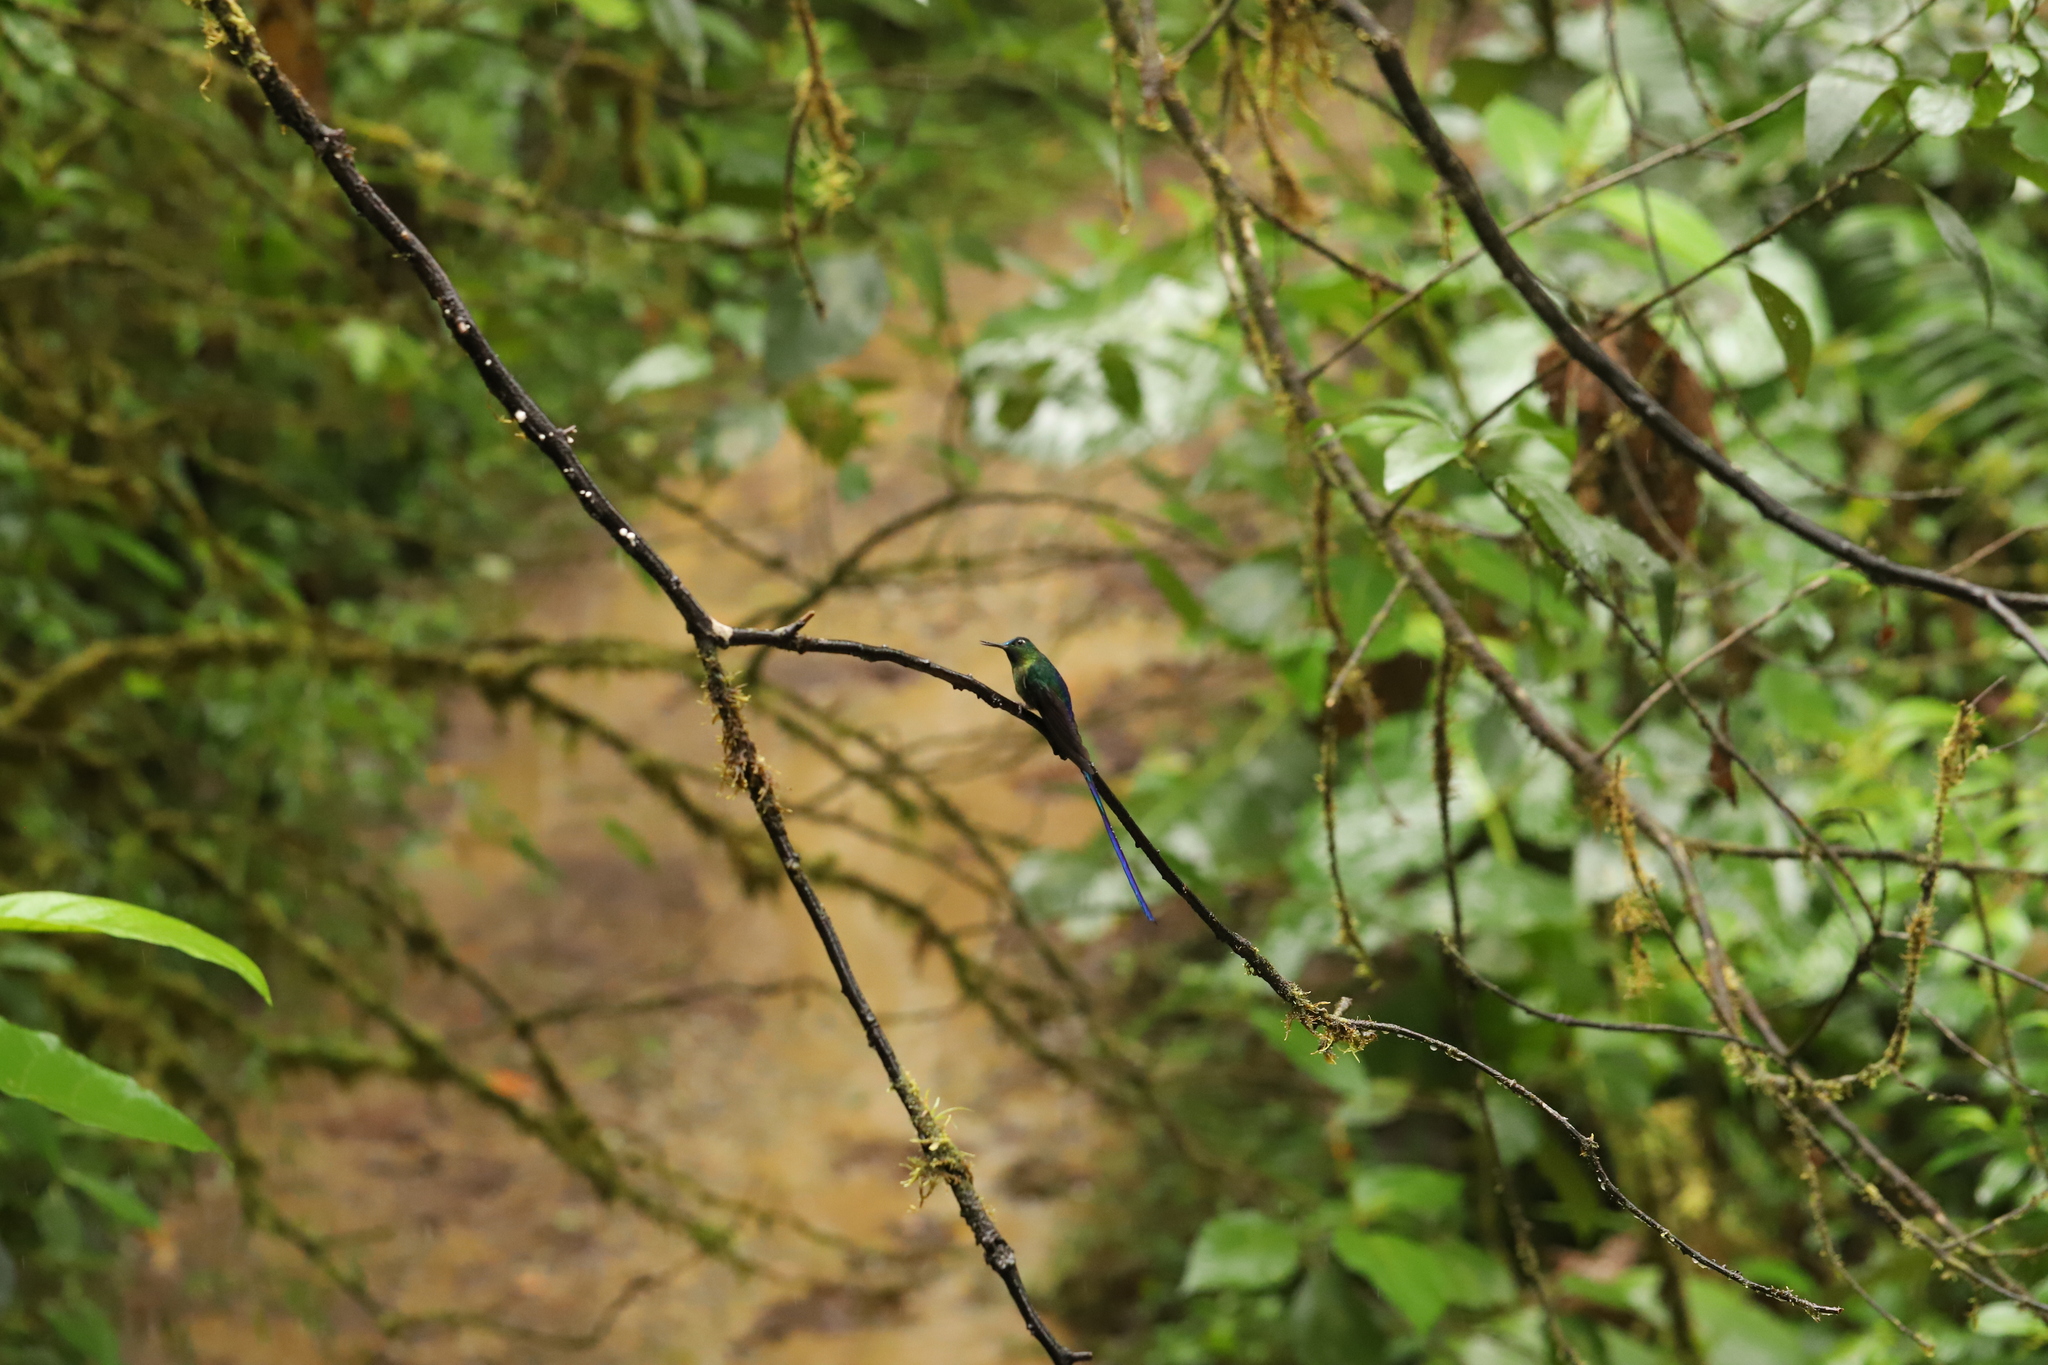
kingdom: Animalia
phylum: Chordata
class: Aves
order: Apodiformes
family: Trochilidae
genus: Aglaiocercus
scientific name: Aglaiocercus coelestis
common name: Violet-tailed sylph
